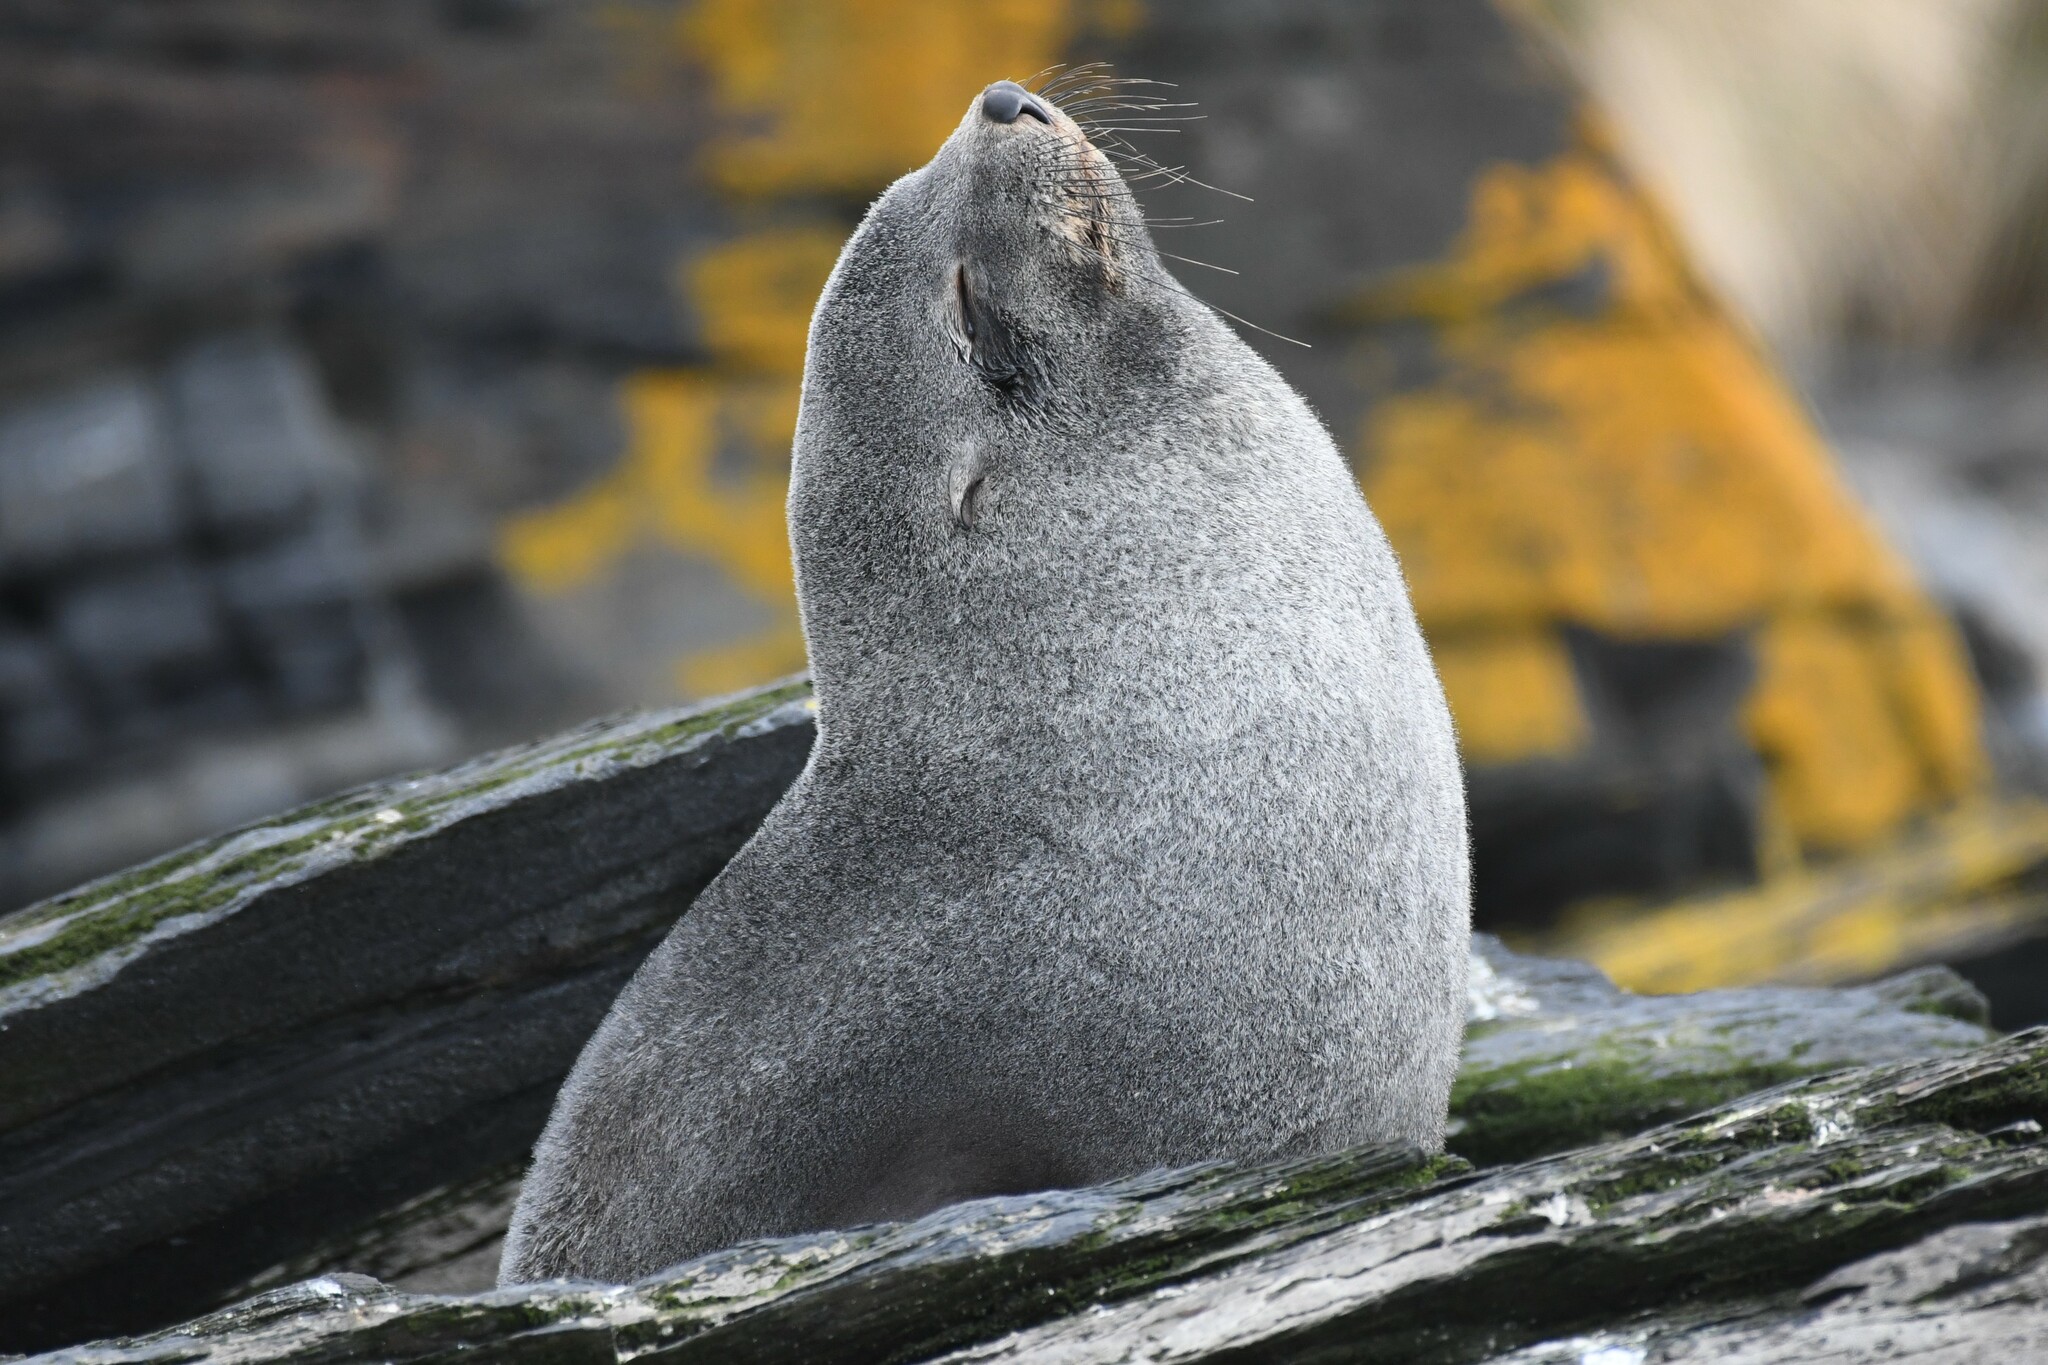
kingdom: Animalia
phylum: Chordata
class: Mammalia
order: Carnivora
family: Otariidae
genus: Arctocephalus
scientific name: Arctocephalus gazella
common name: Antarctic fur seal
